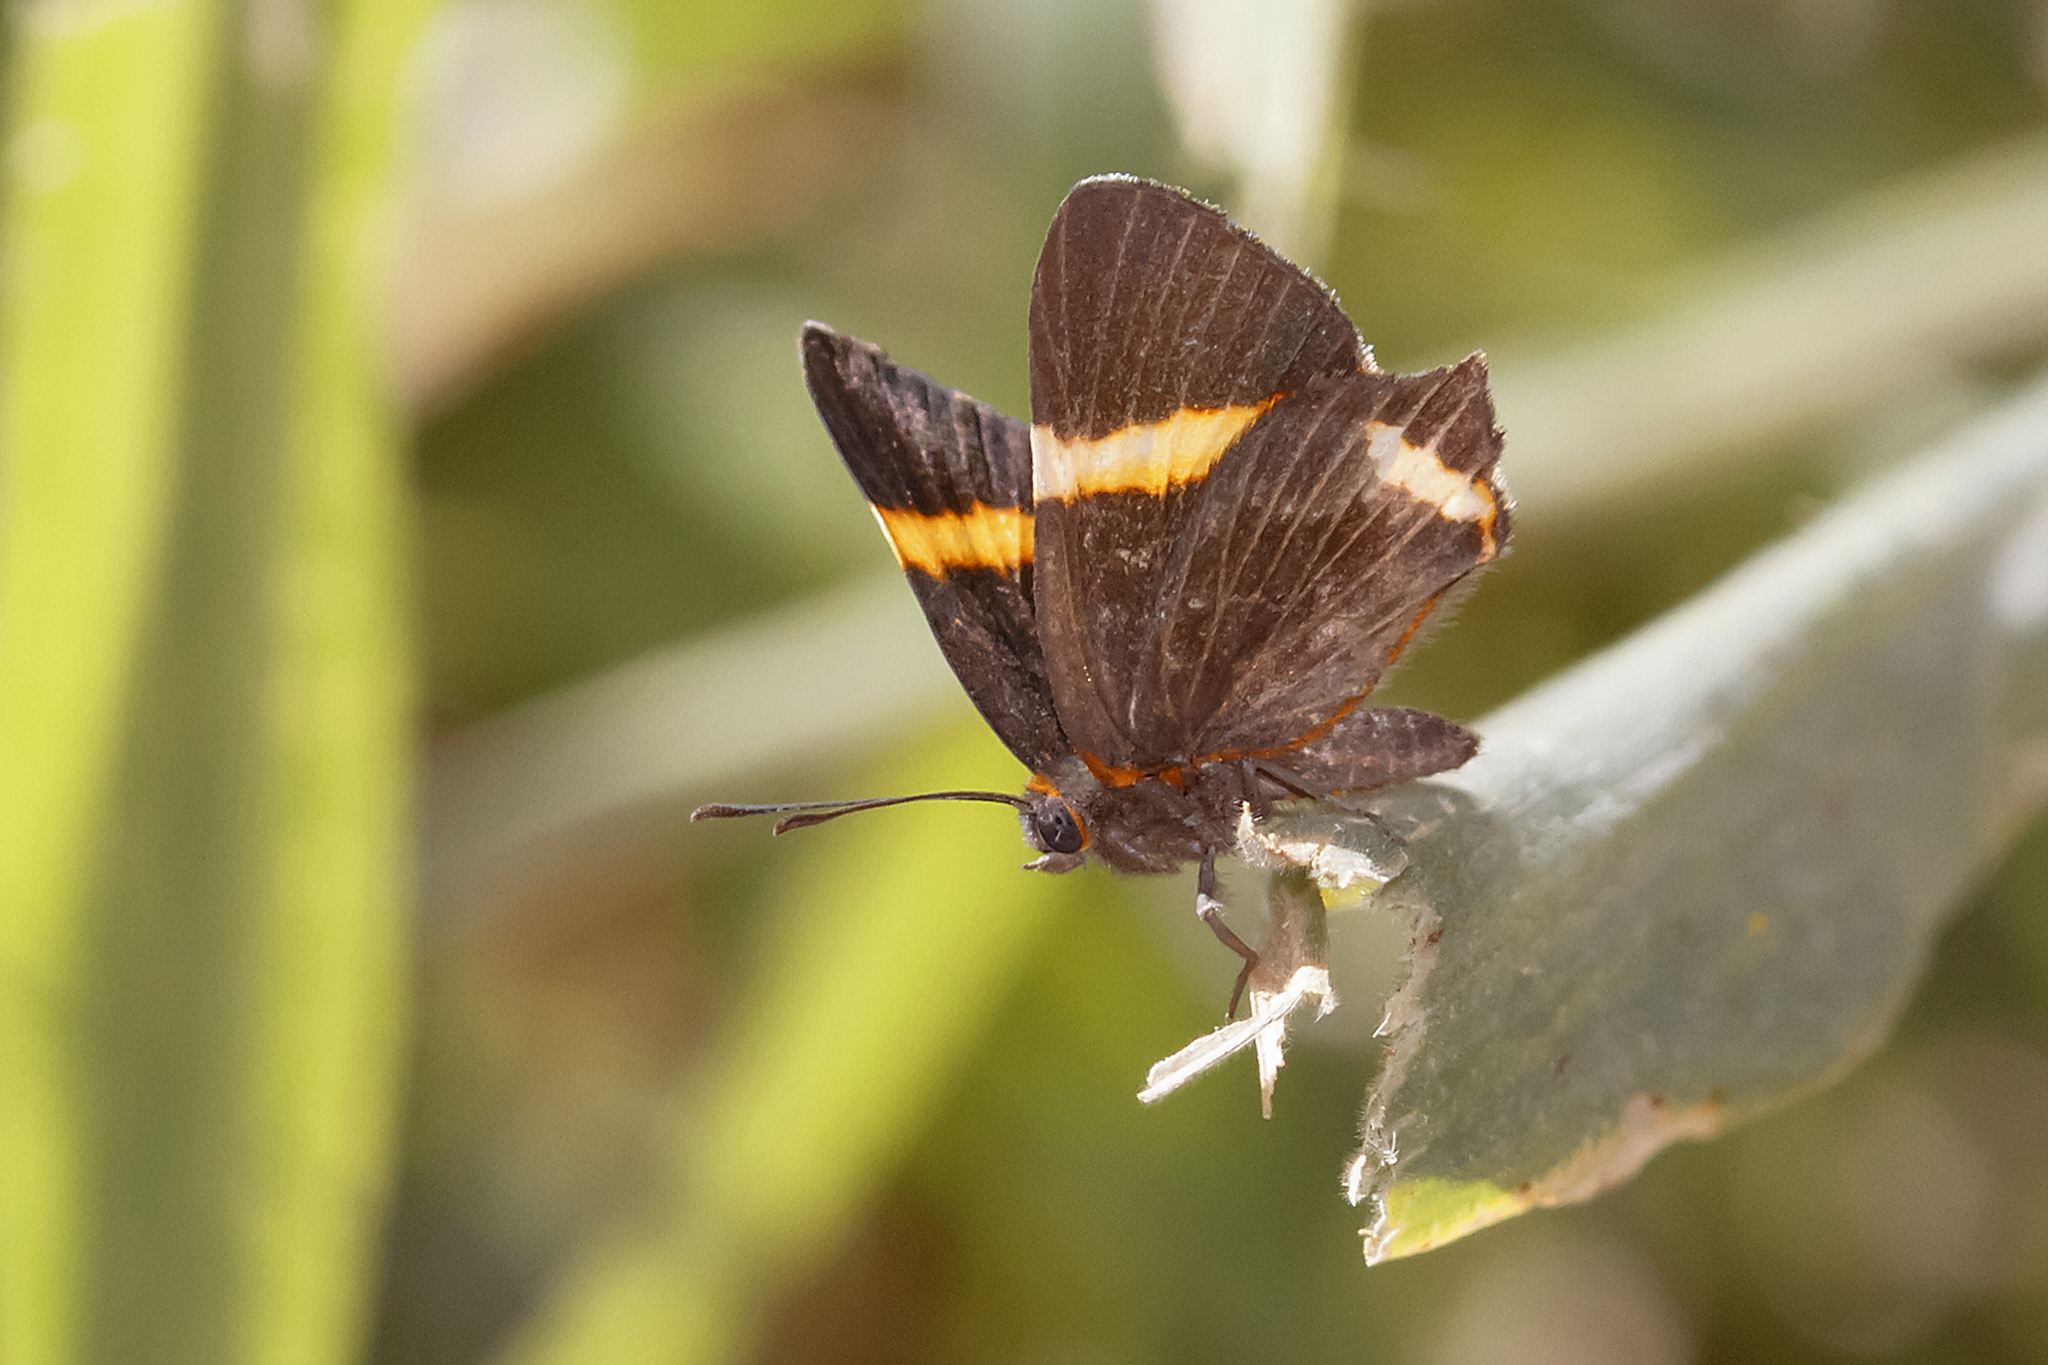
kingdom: Animalia
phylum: Arthropoda
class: Insecta
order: Lepidoptera
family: Riodinidae
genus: Riodina
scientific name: Riodina lysippoides
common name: Little dancer metalmark
